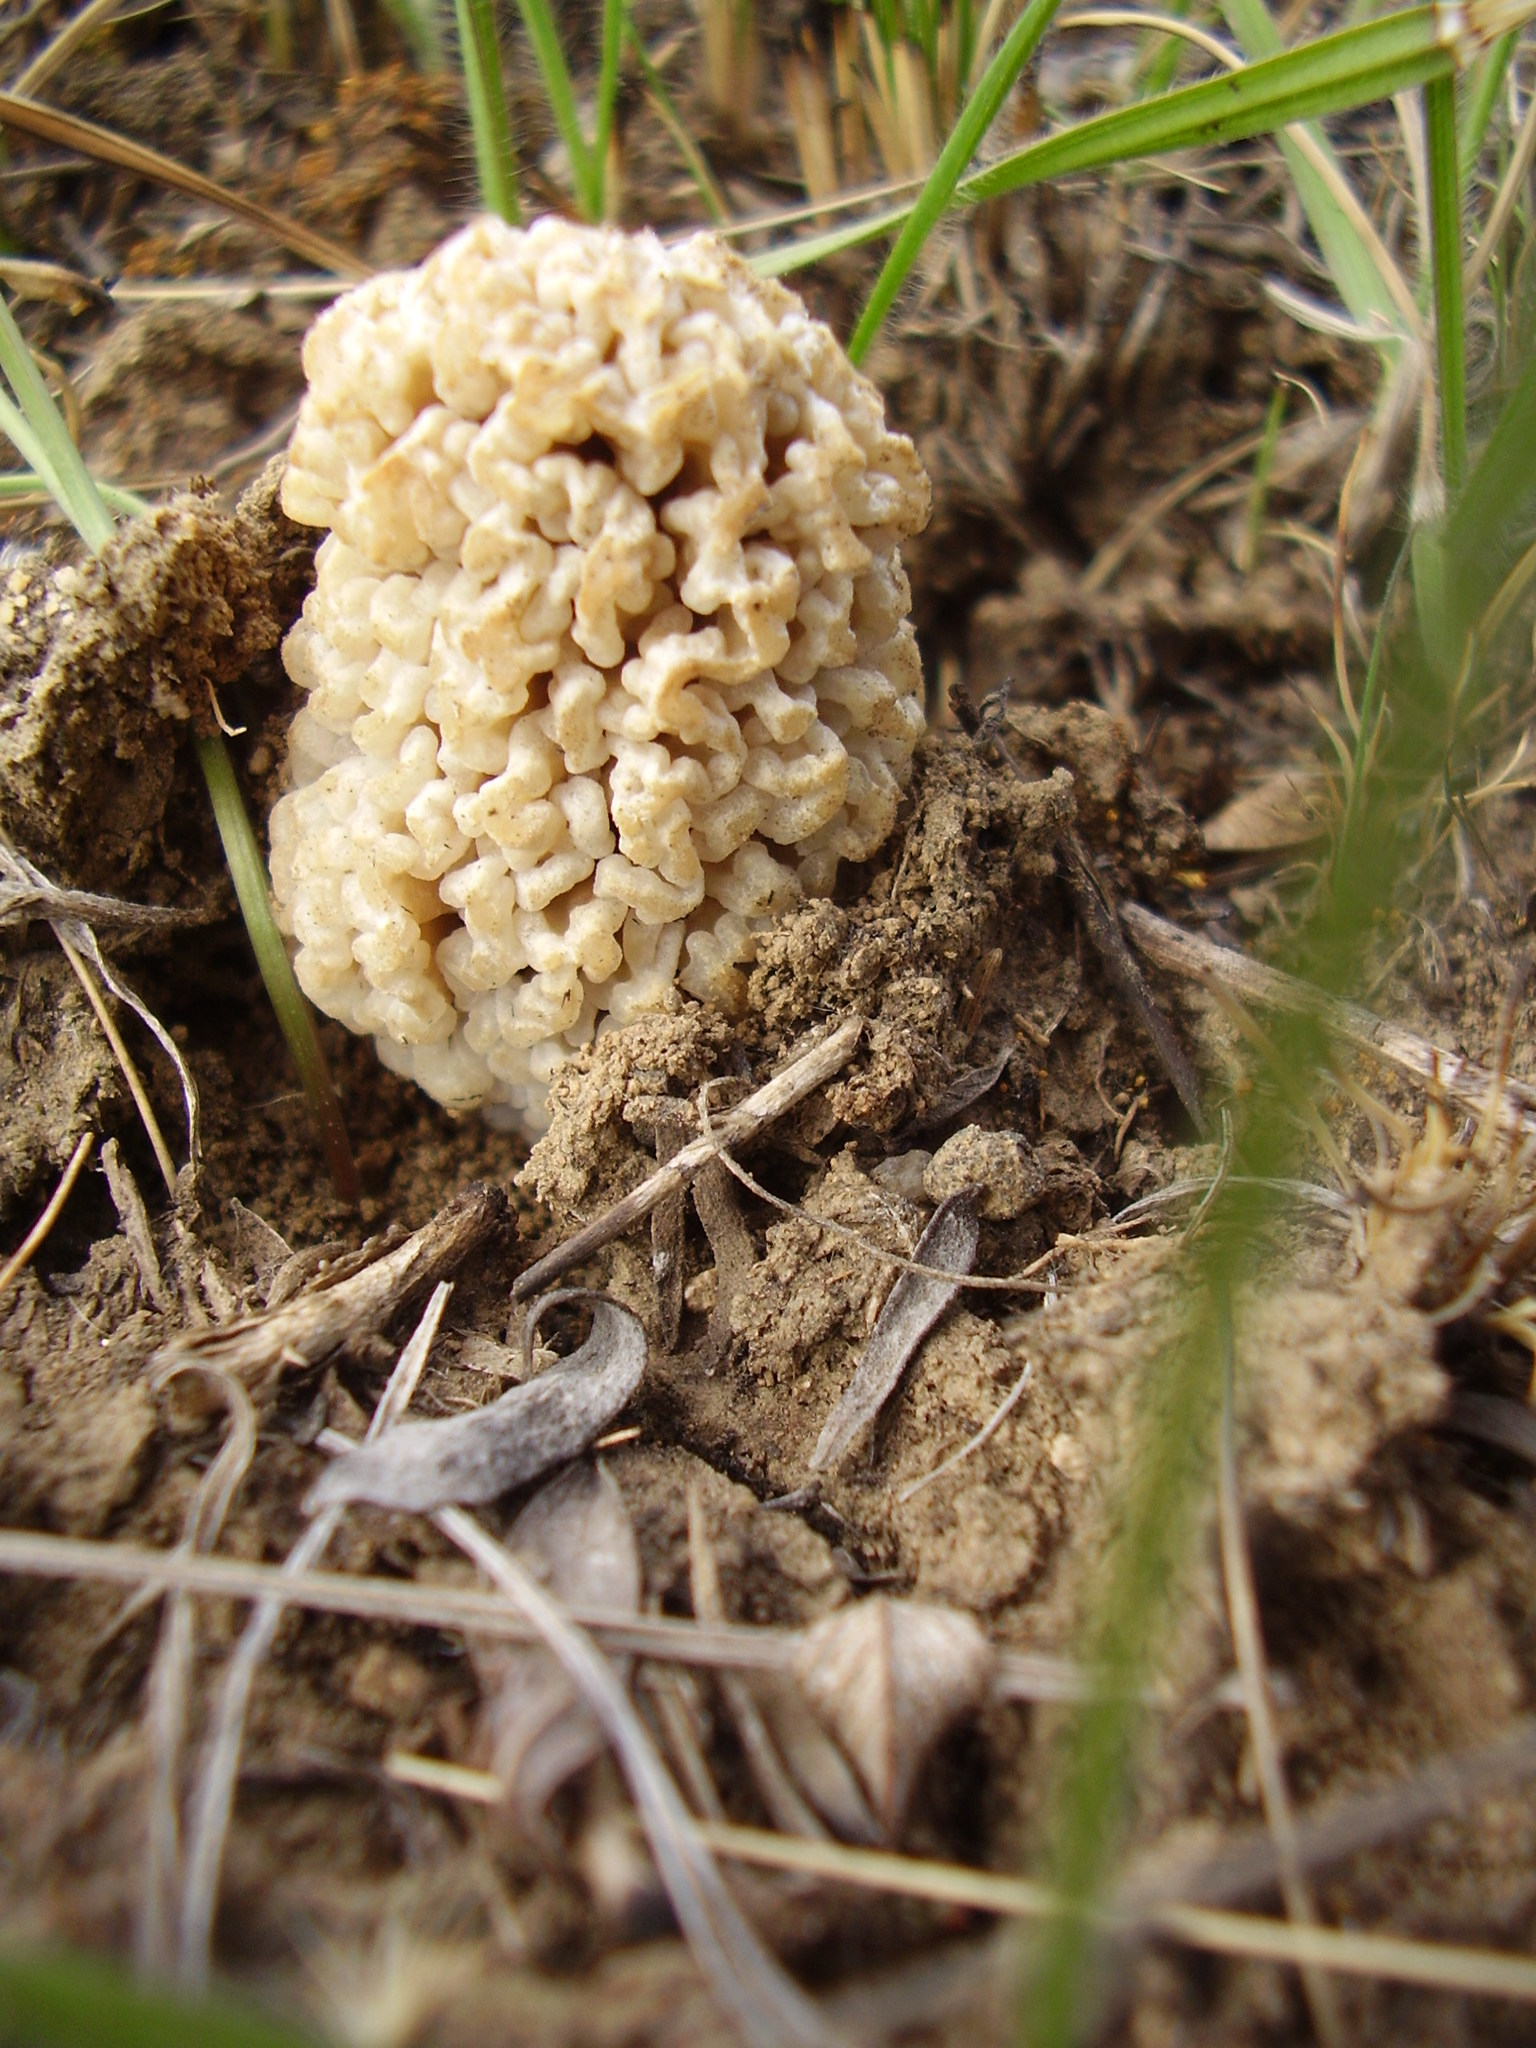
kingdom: Fungi
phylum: Ascomycota
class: Pezizomycetes
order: Pezizales
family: Morchellaceae
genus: Morchella
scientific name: Morchella steppicola
